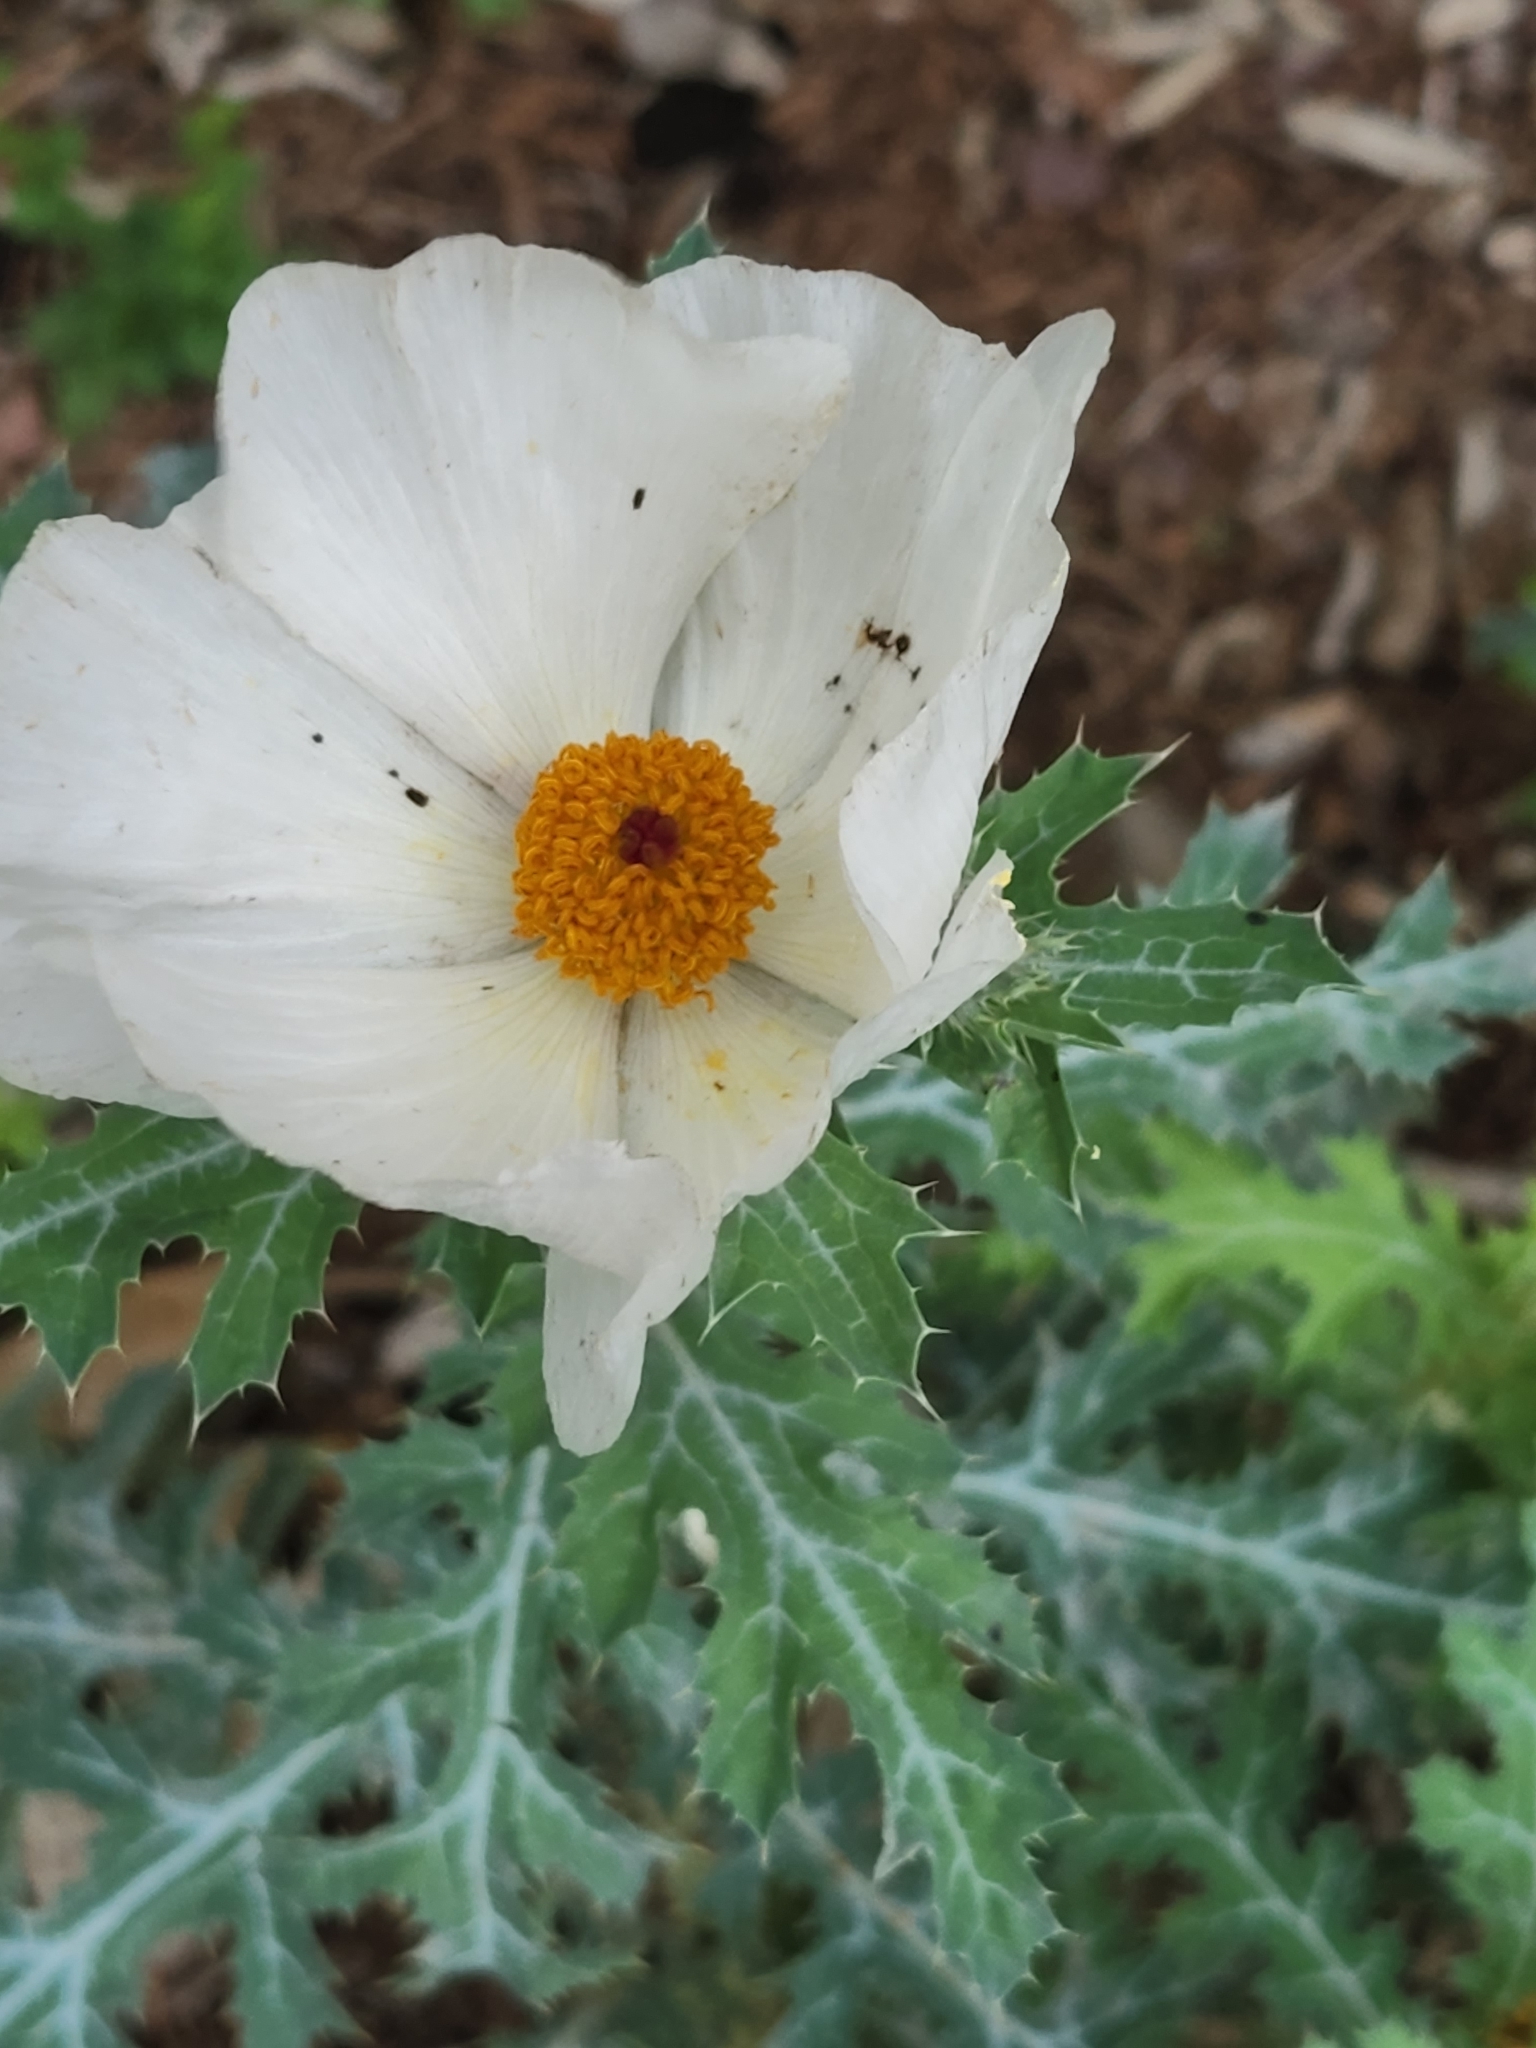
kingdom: Plantae
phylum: Tracheophyta
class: Magnoliopsida
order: Ranunculales
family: Papaveraceae
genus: Argemone
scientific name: Argemone aurantiaca
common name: Texas prickly-poppy
